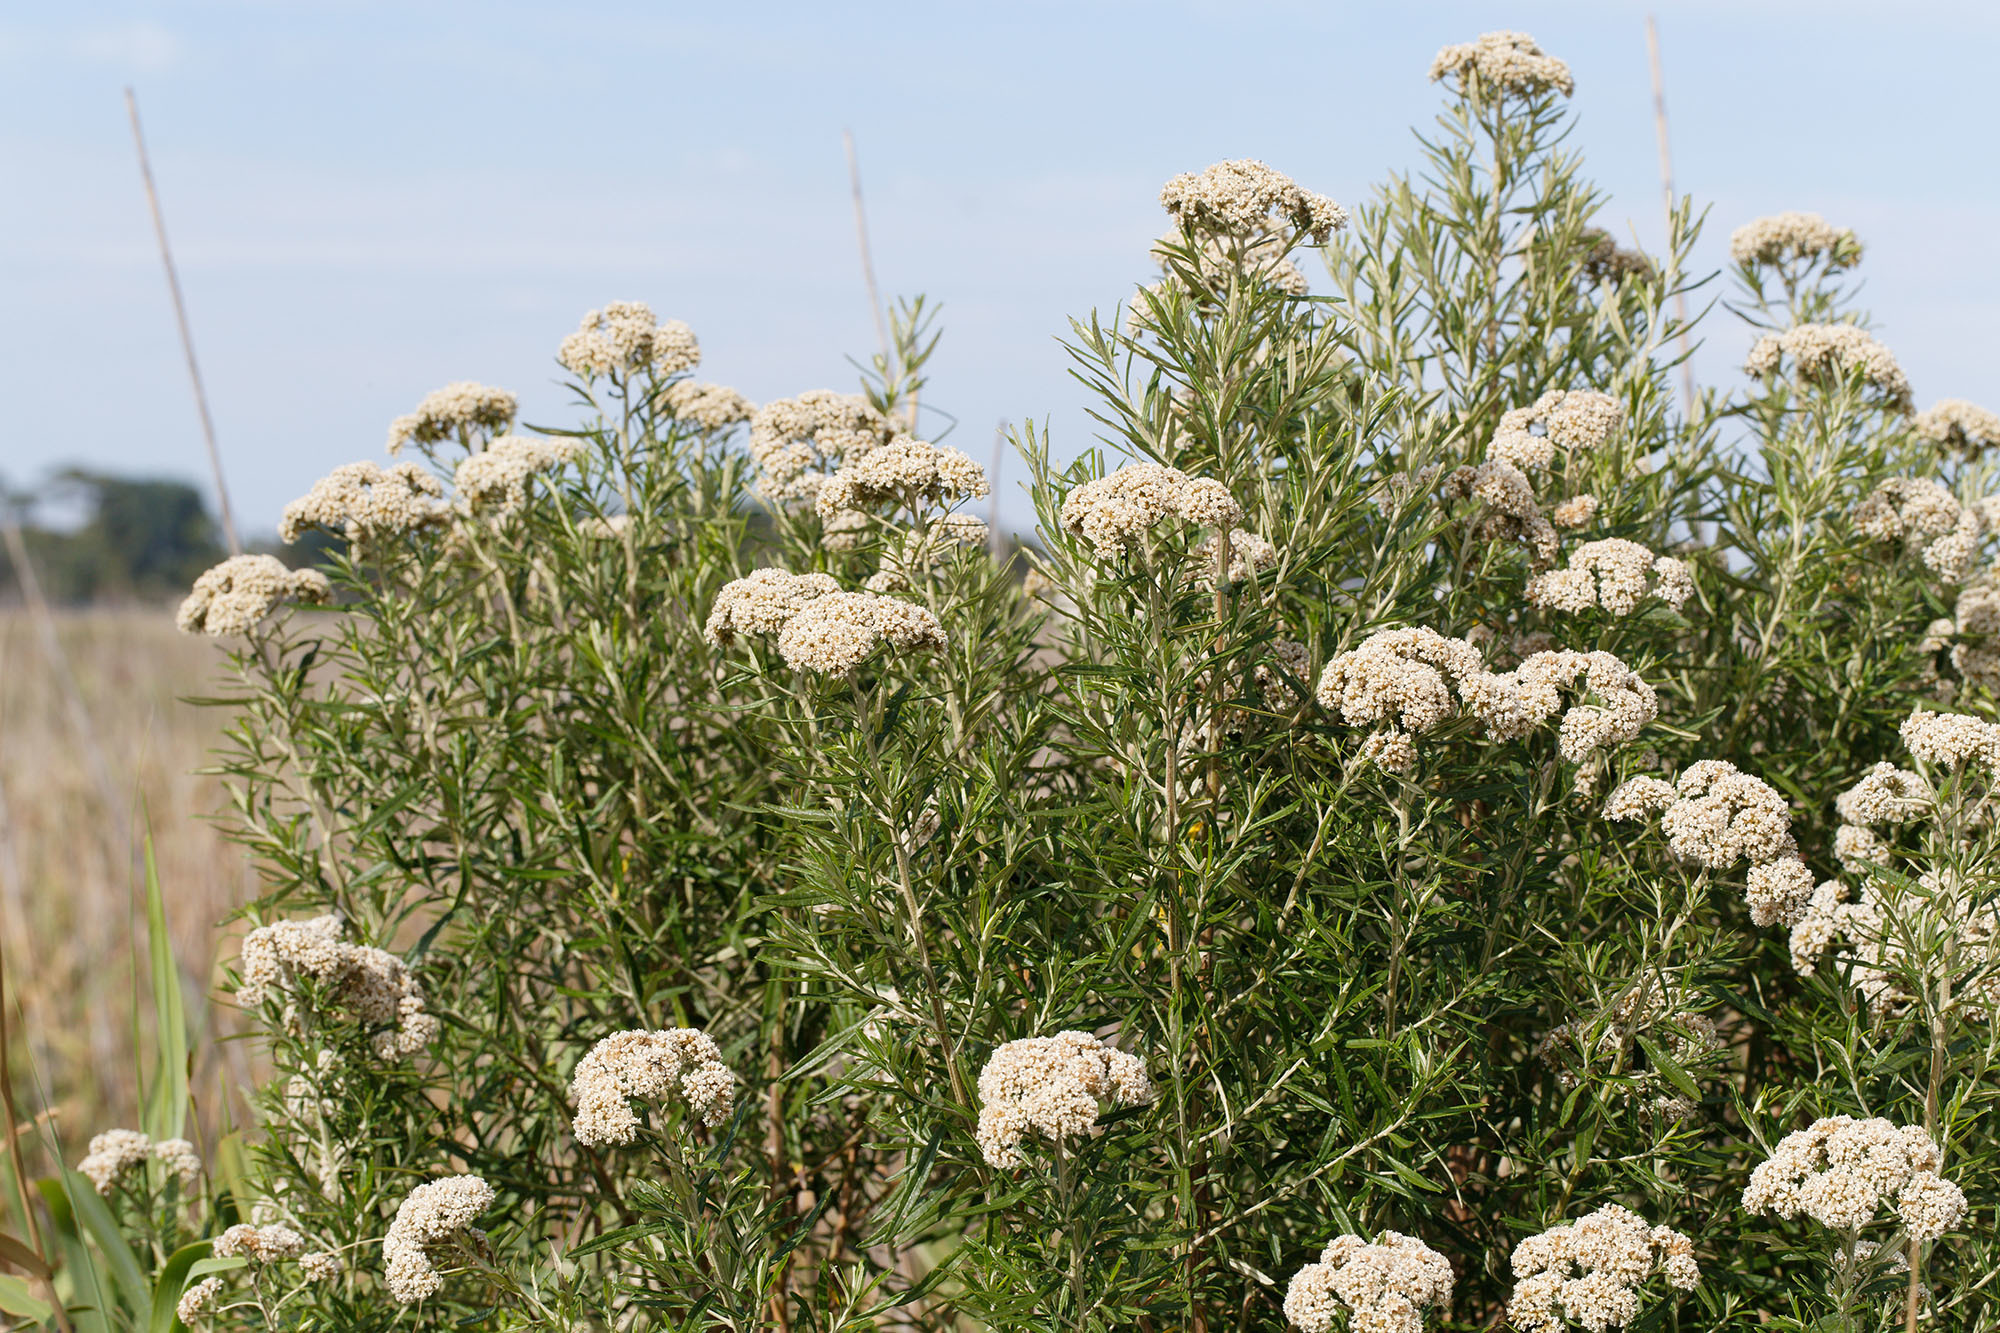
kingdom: Plantae
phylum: Tracheophyta
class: Magnoliopsida
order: Asterales
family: Asteraceae
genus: Cassinia
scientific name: Cassinia aculeata
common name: Australian tauhinu
